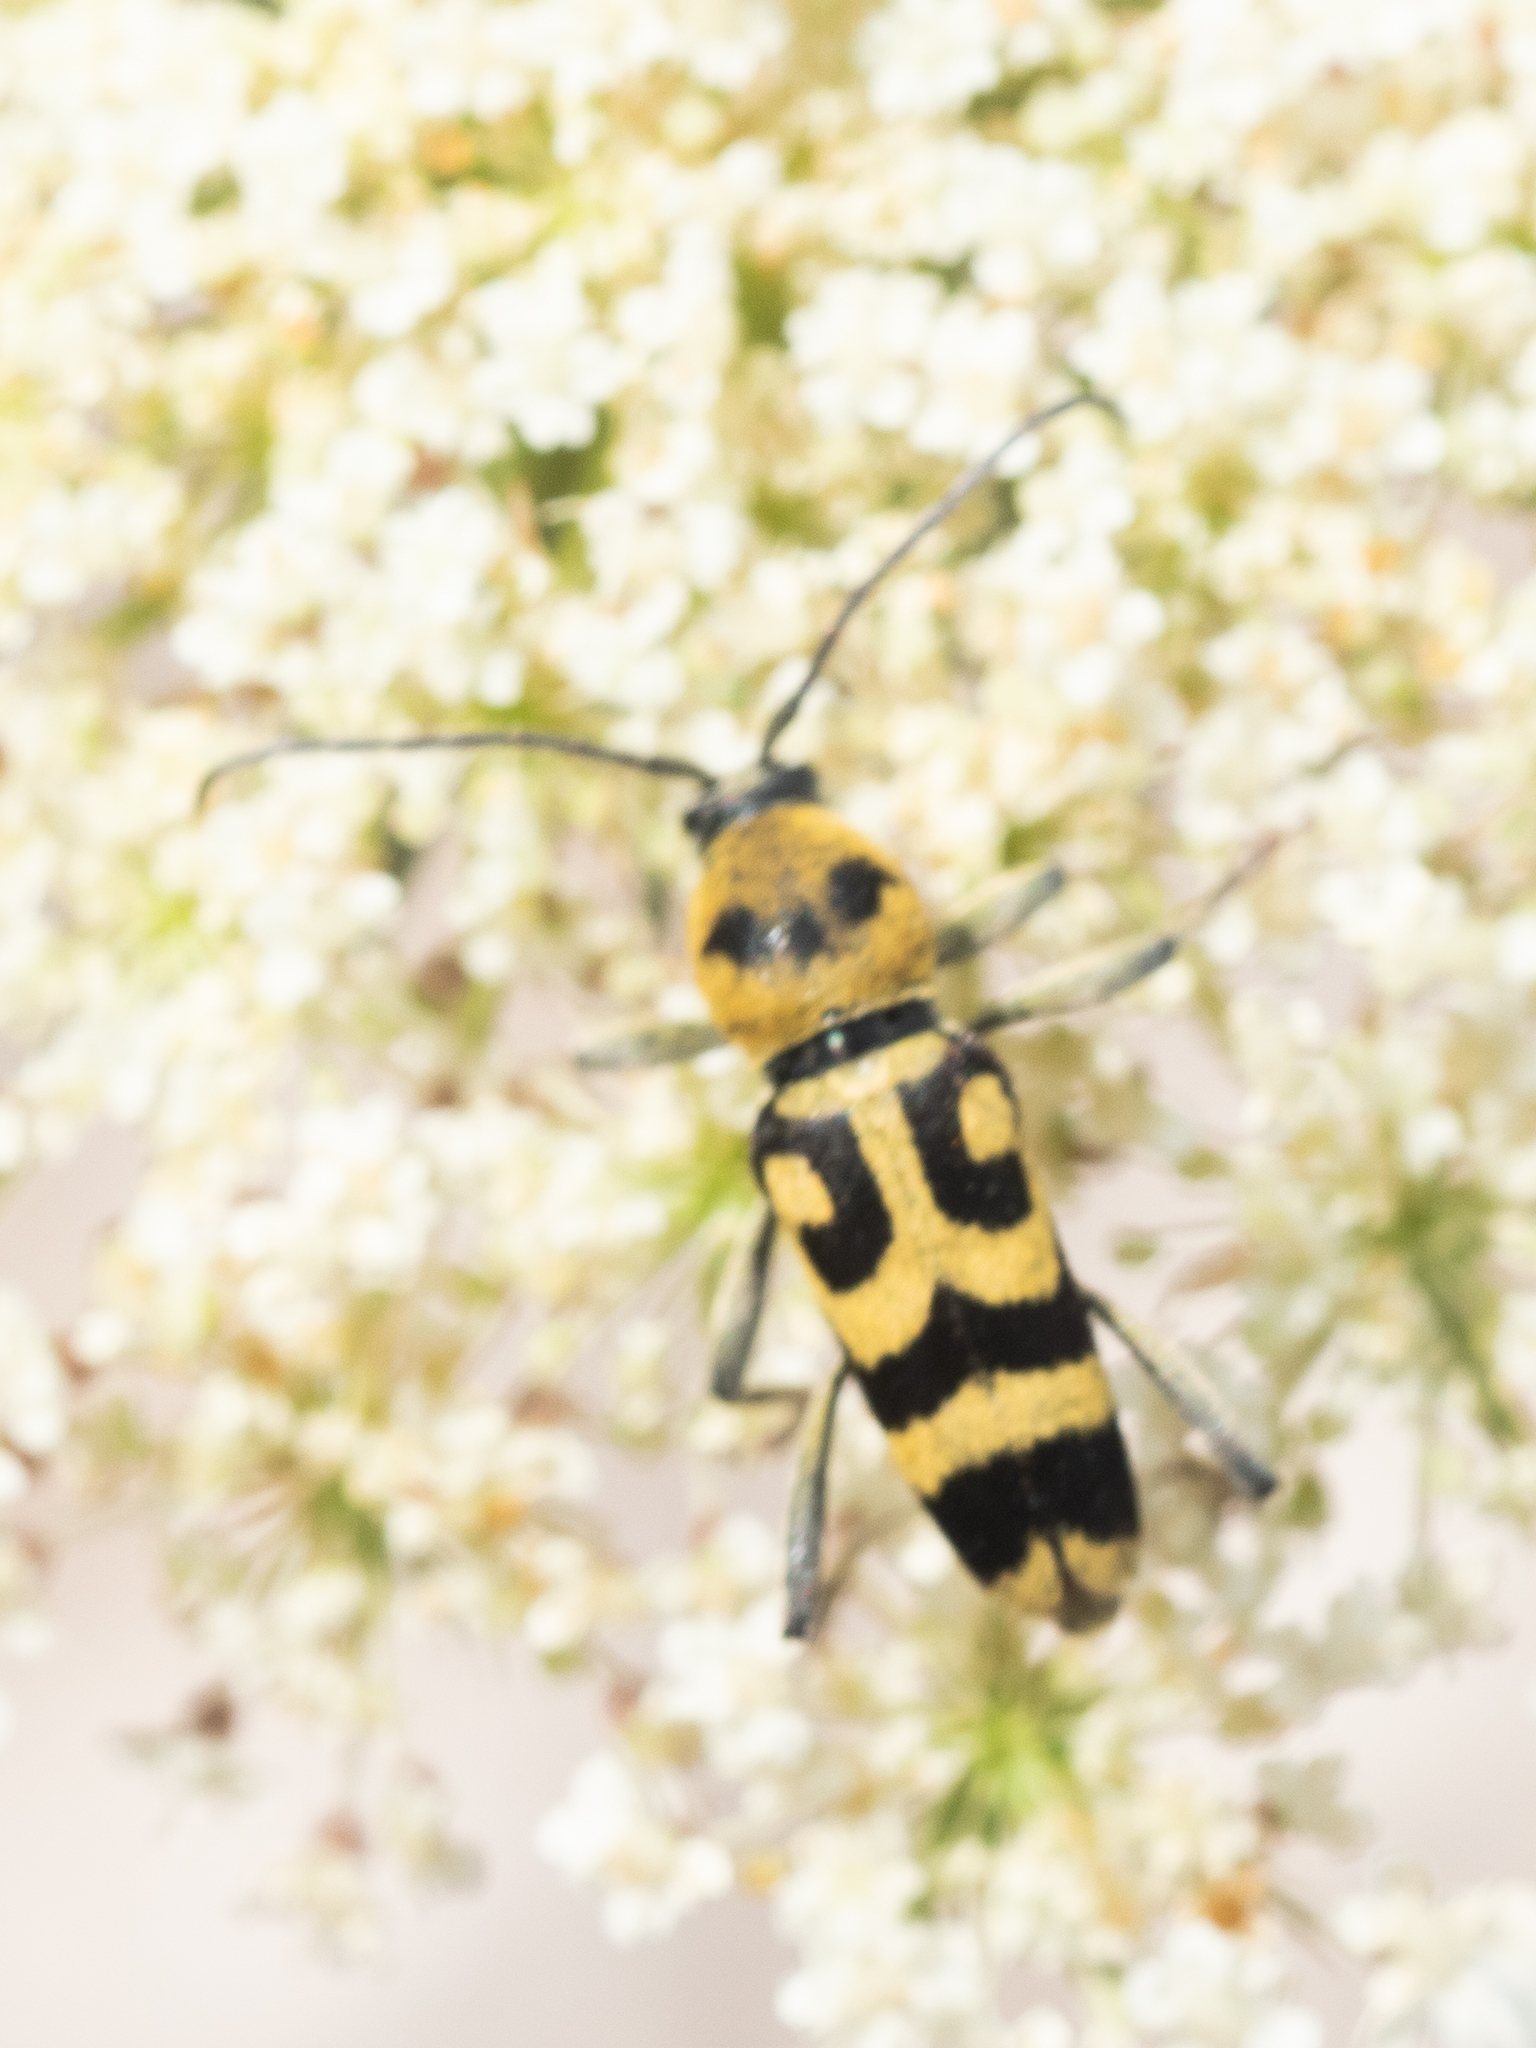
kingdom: Animalia
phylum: Arthropoda
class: Insecta
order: Coleoptera
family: Cerambycidae
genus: Chlorophorus
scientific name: Chlorophorus varius
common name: Grape wood borer
